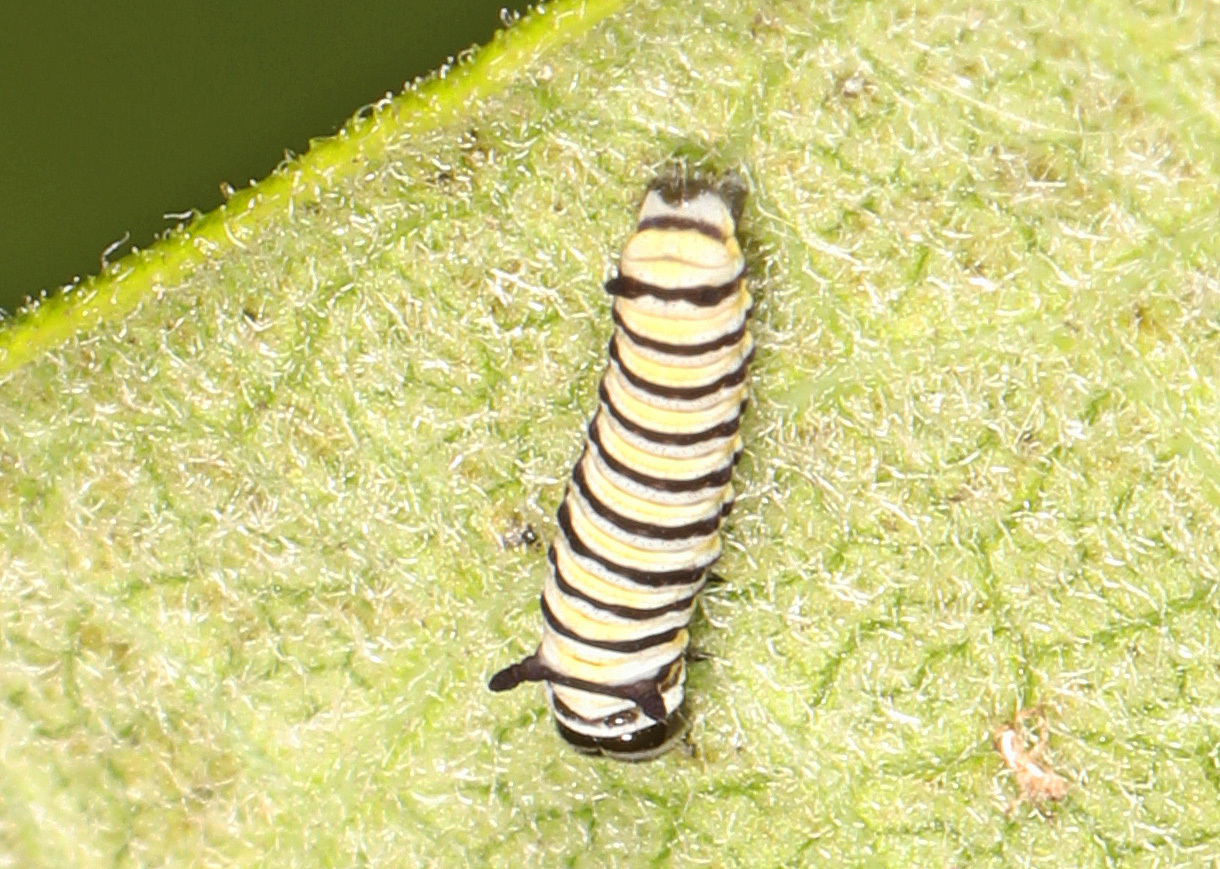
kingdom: Animalia
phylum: Arthropoda
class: Insecta
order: Lepidoptera
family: Nymphalidae
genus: Danaus
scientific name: Danaus plexippus
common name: Monarch
